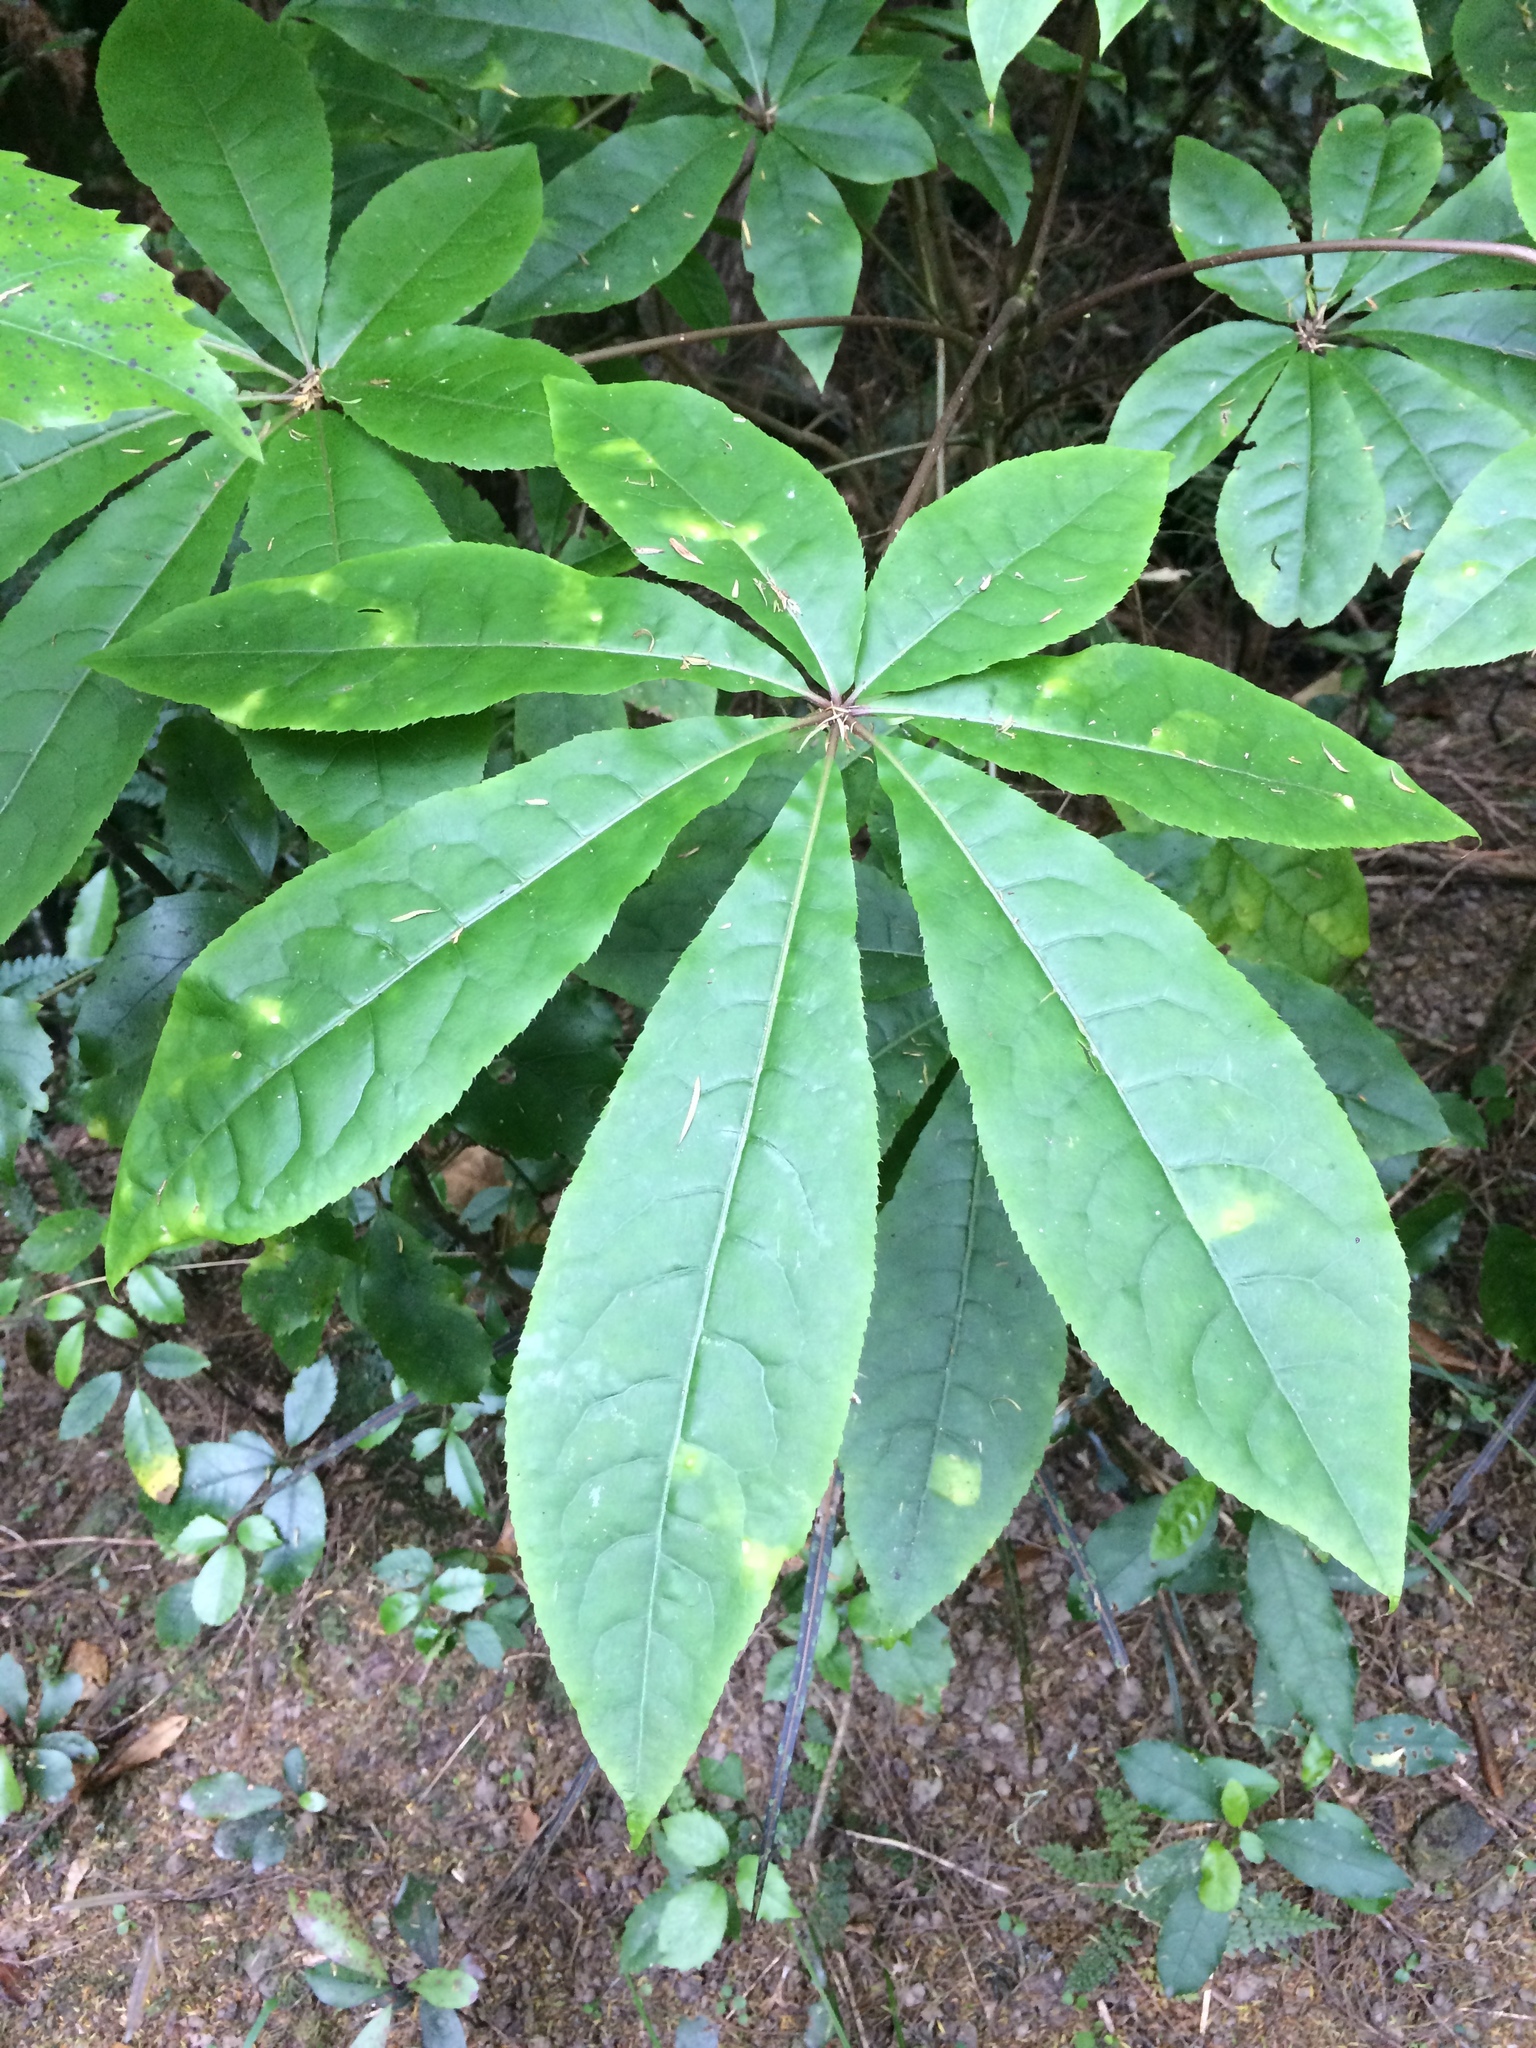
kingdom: Plantae
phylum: Tracheophyta
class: Magnoliopsida
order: Apiales
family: Araliaceae
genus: Schefflera
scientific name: Schefflera digitata
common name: Pate
